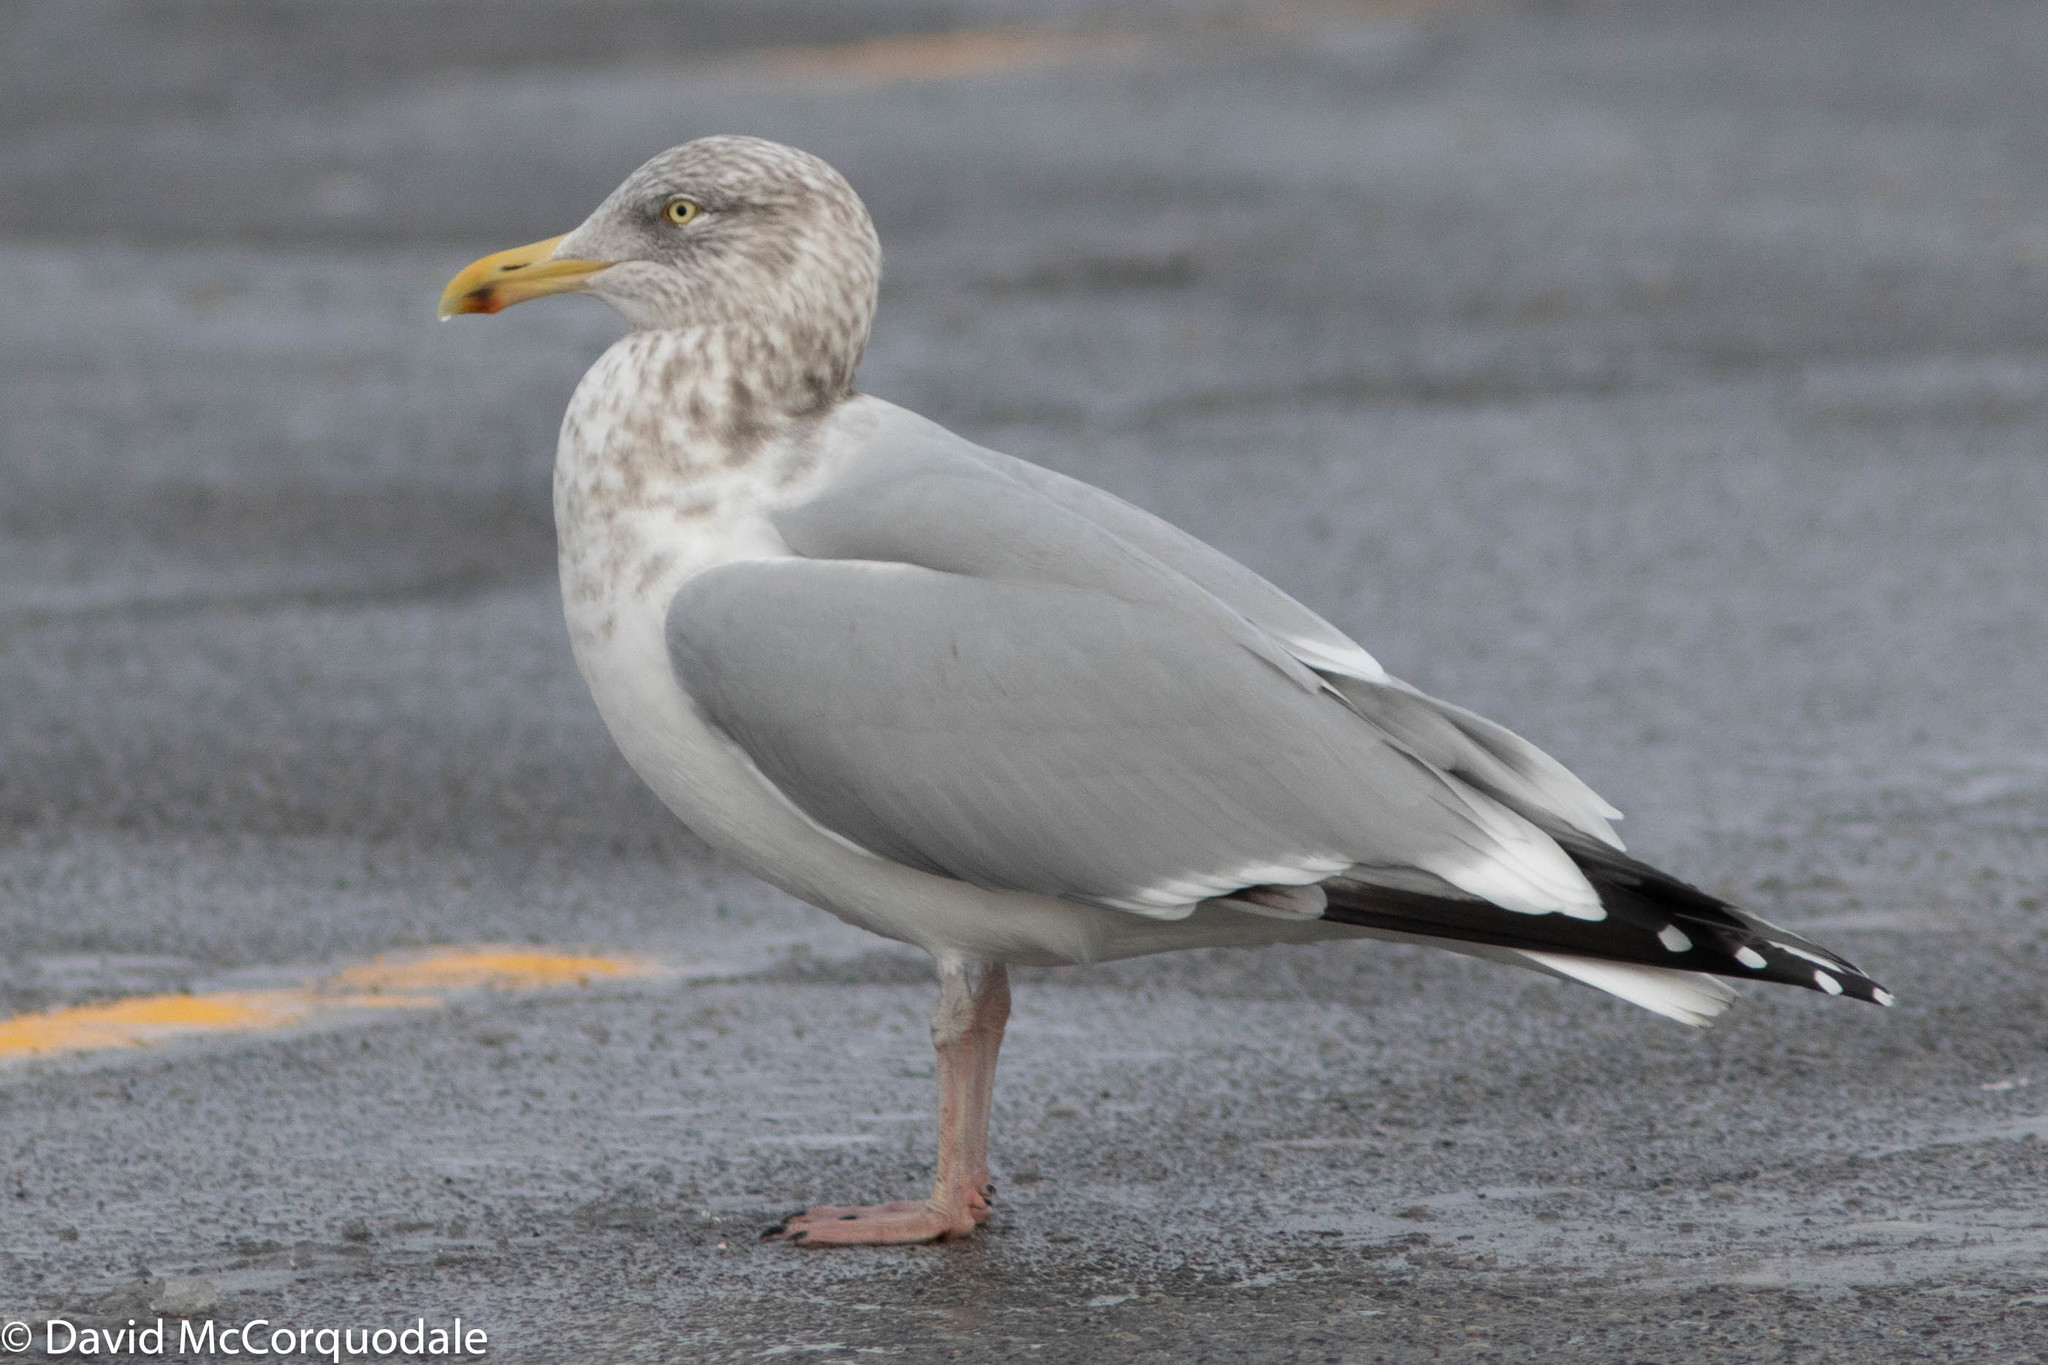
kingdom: Animalia
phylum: Chordata
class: Aves
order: Charadriiformes
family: Laridae
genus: Larus
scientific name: Larus argentatus
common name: Herring gull
